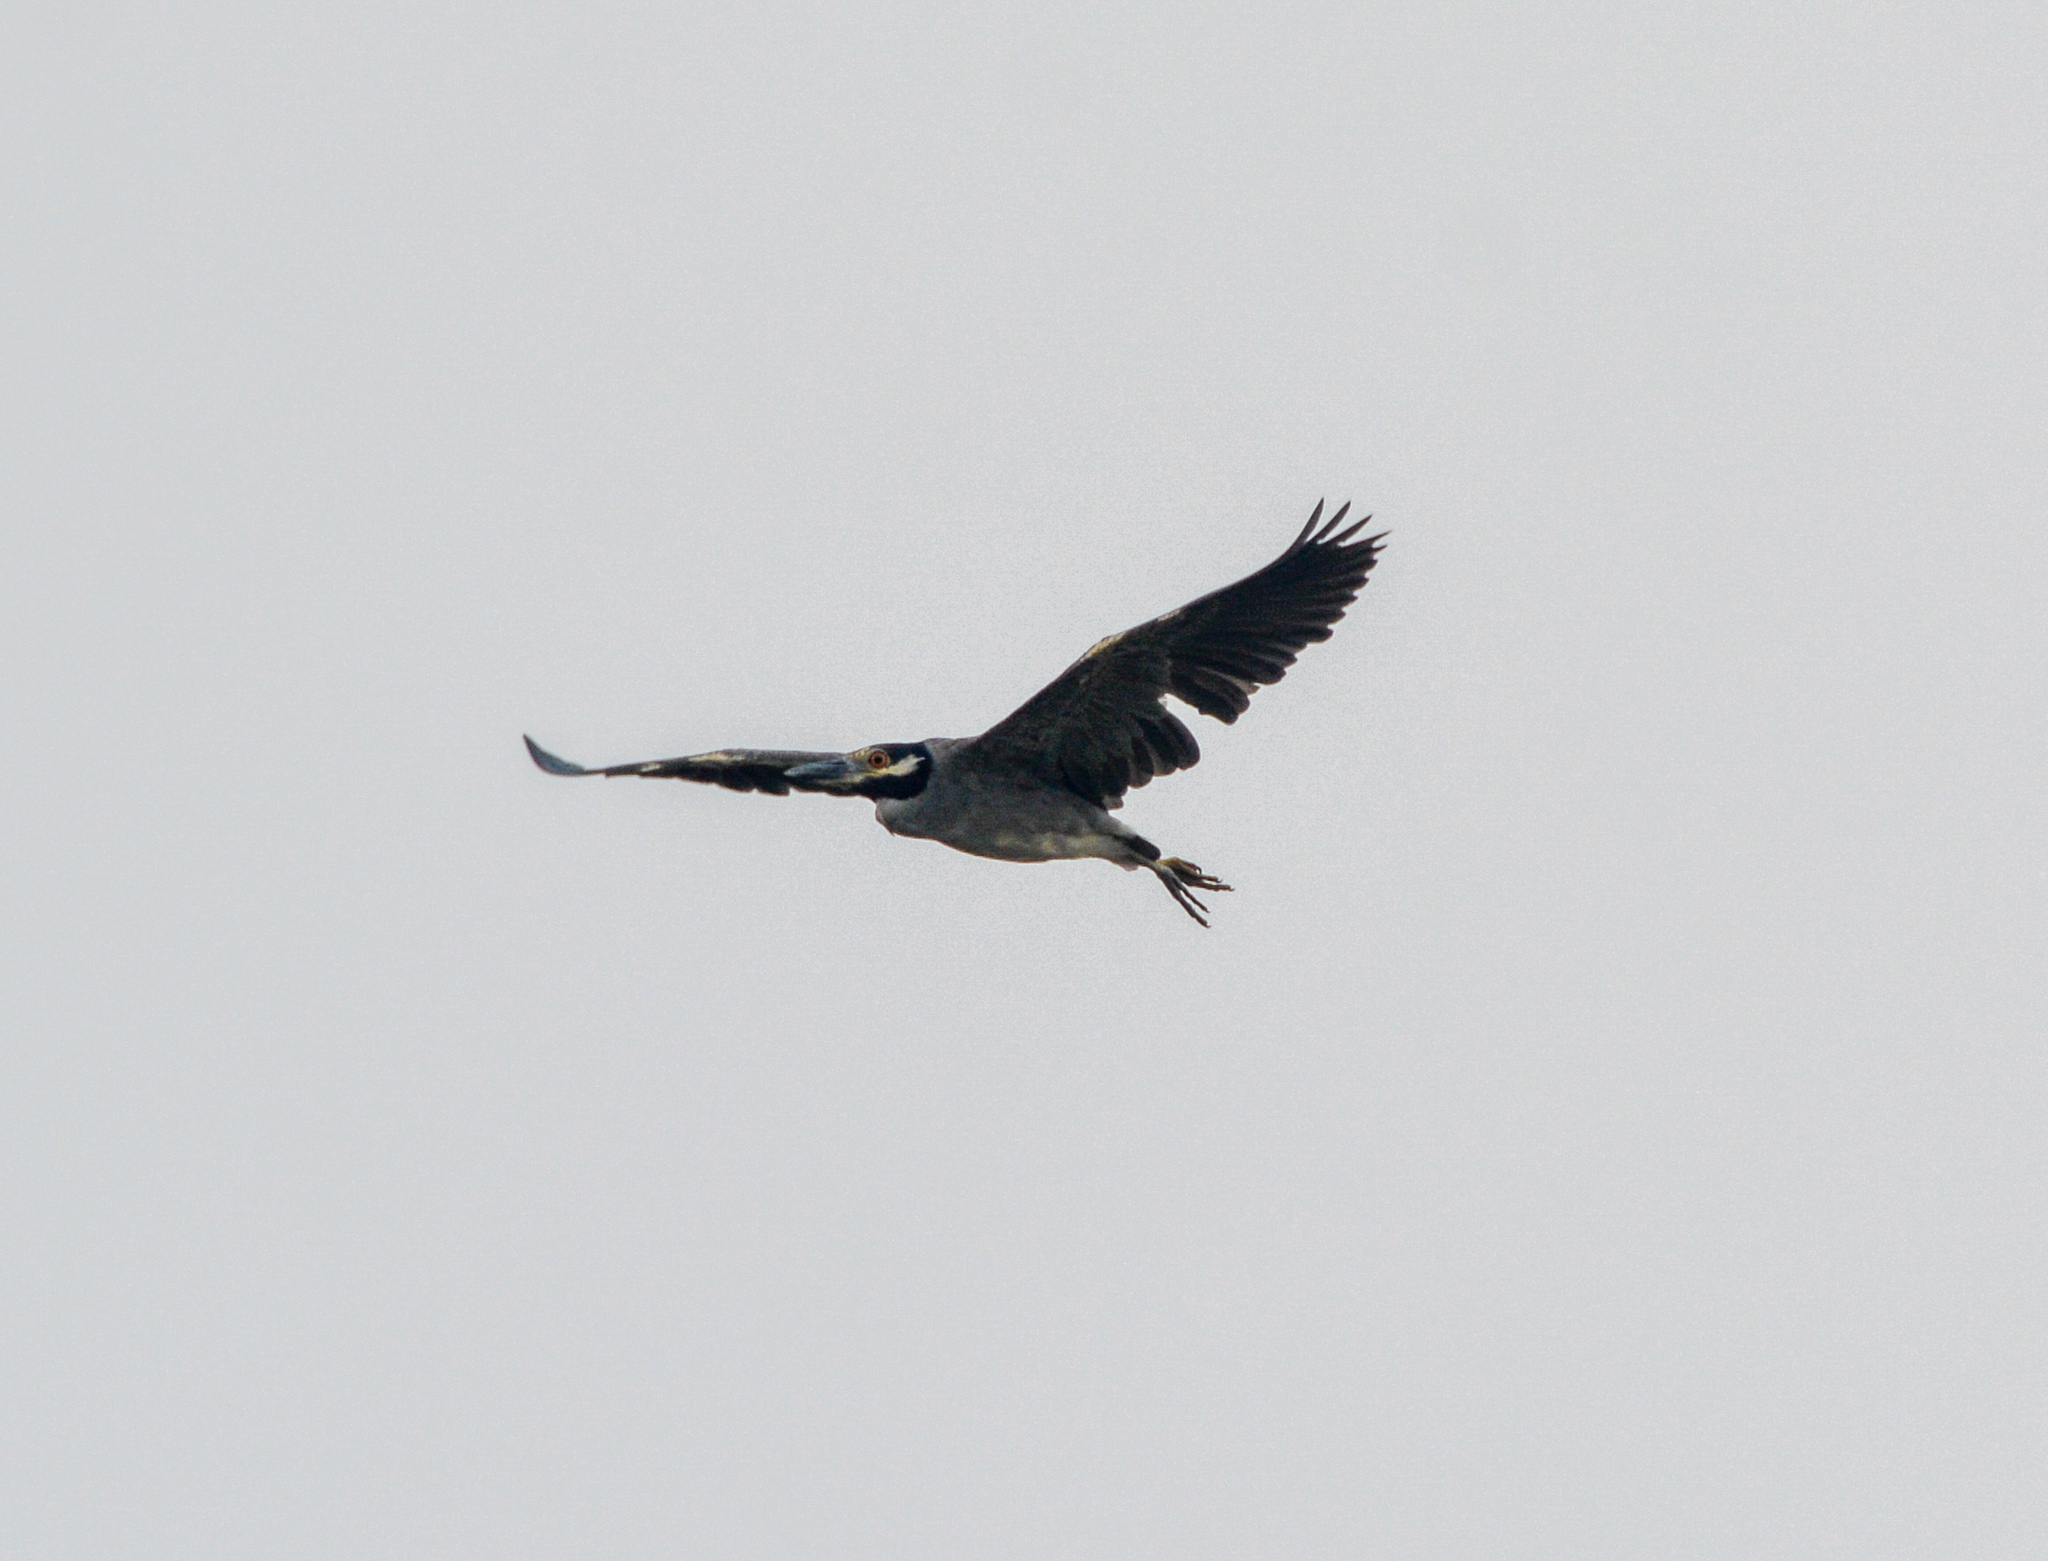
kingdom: Animalia
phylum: Chordata
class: Aves
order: Pelecaniformes
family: Ardeidae
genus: Nyctanassa
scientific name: Nyctanassa violacea
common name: Yellow-crowned night heron
